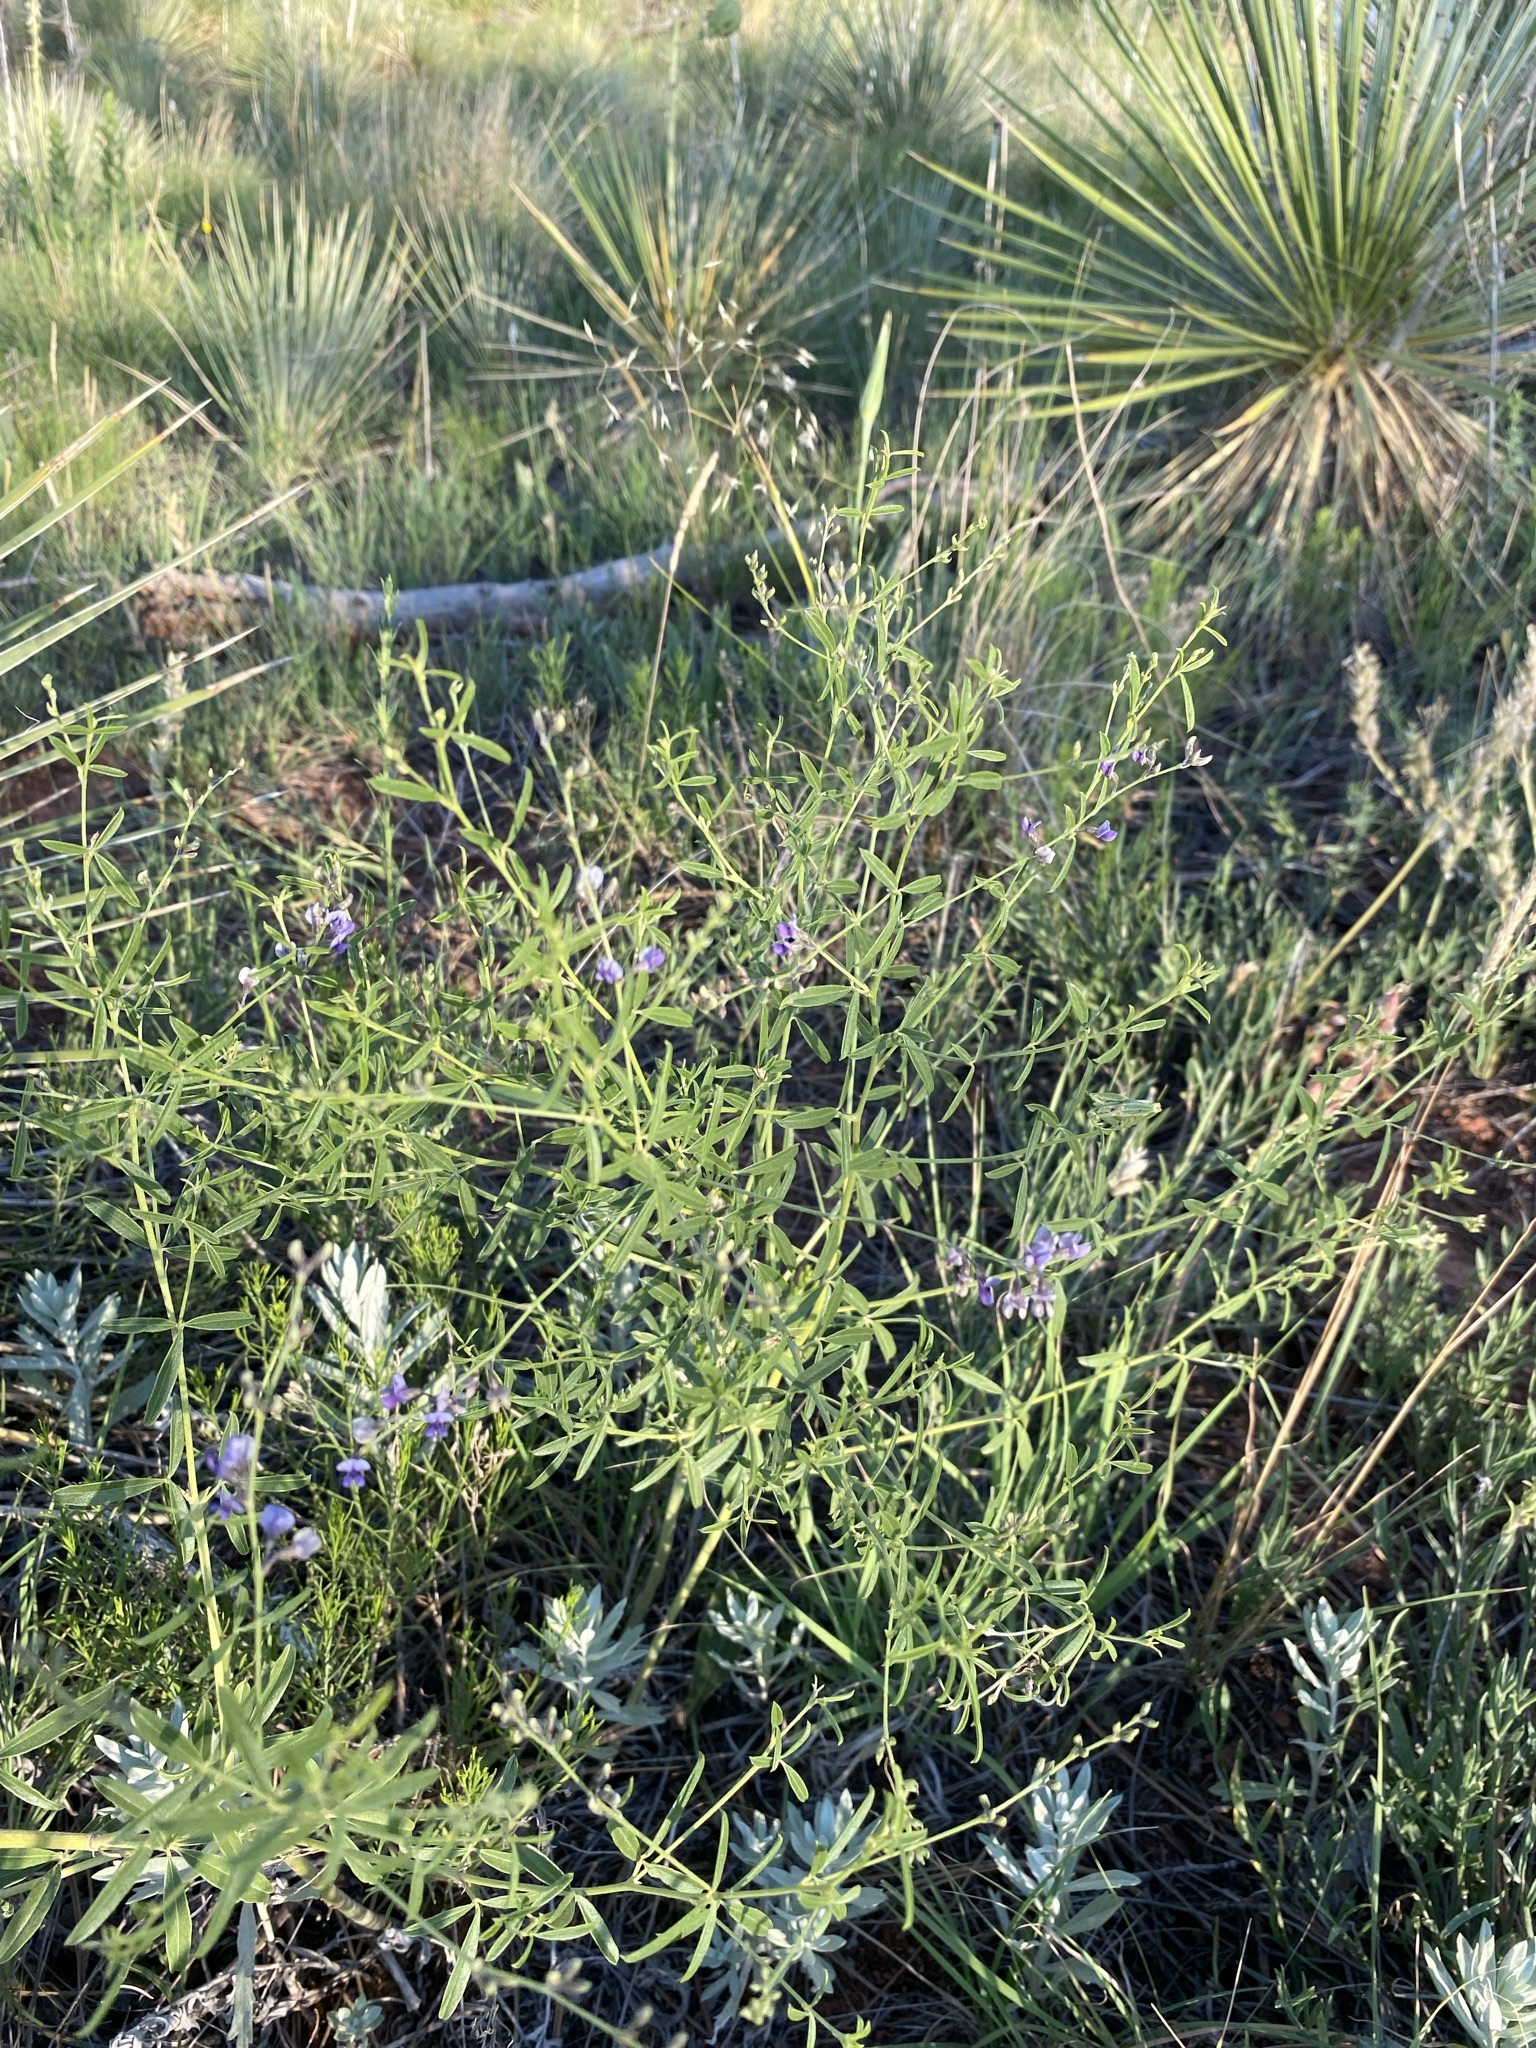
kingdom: Plantae
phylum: Tracheophyta
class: Magnoliopsida
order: Fabales
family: Fabaceae
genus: Pediomelum
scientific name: Pediomelum tenuiflorum
